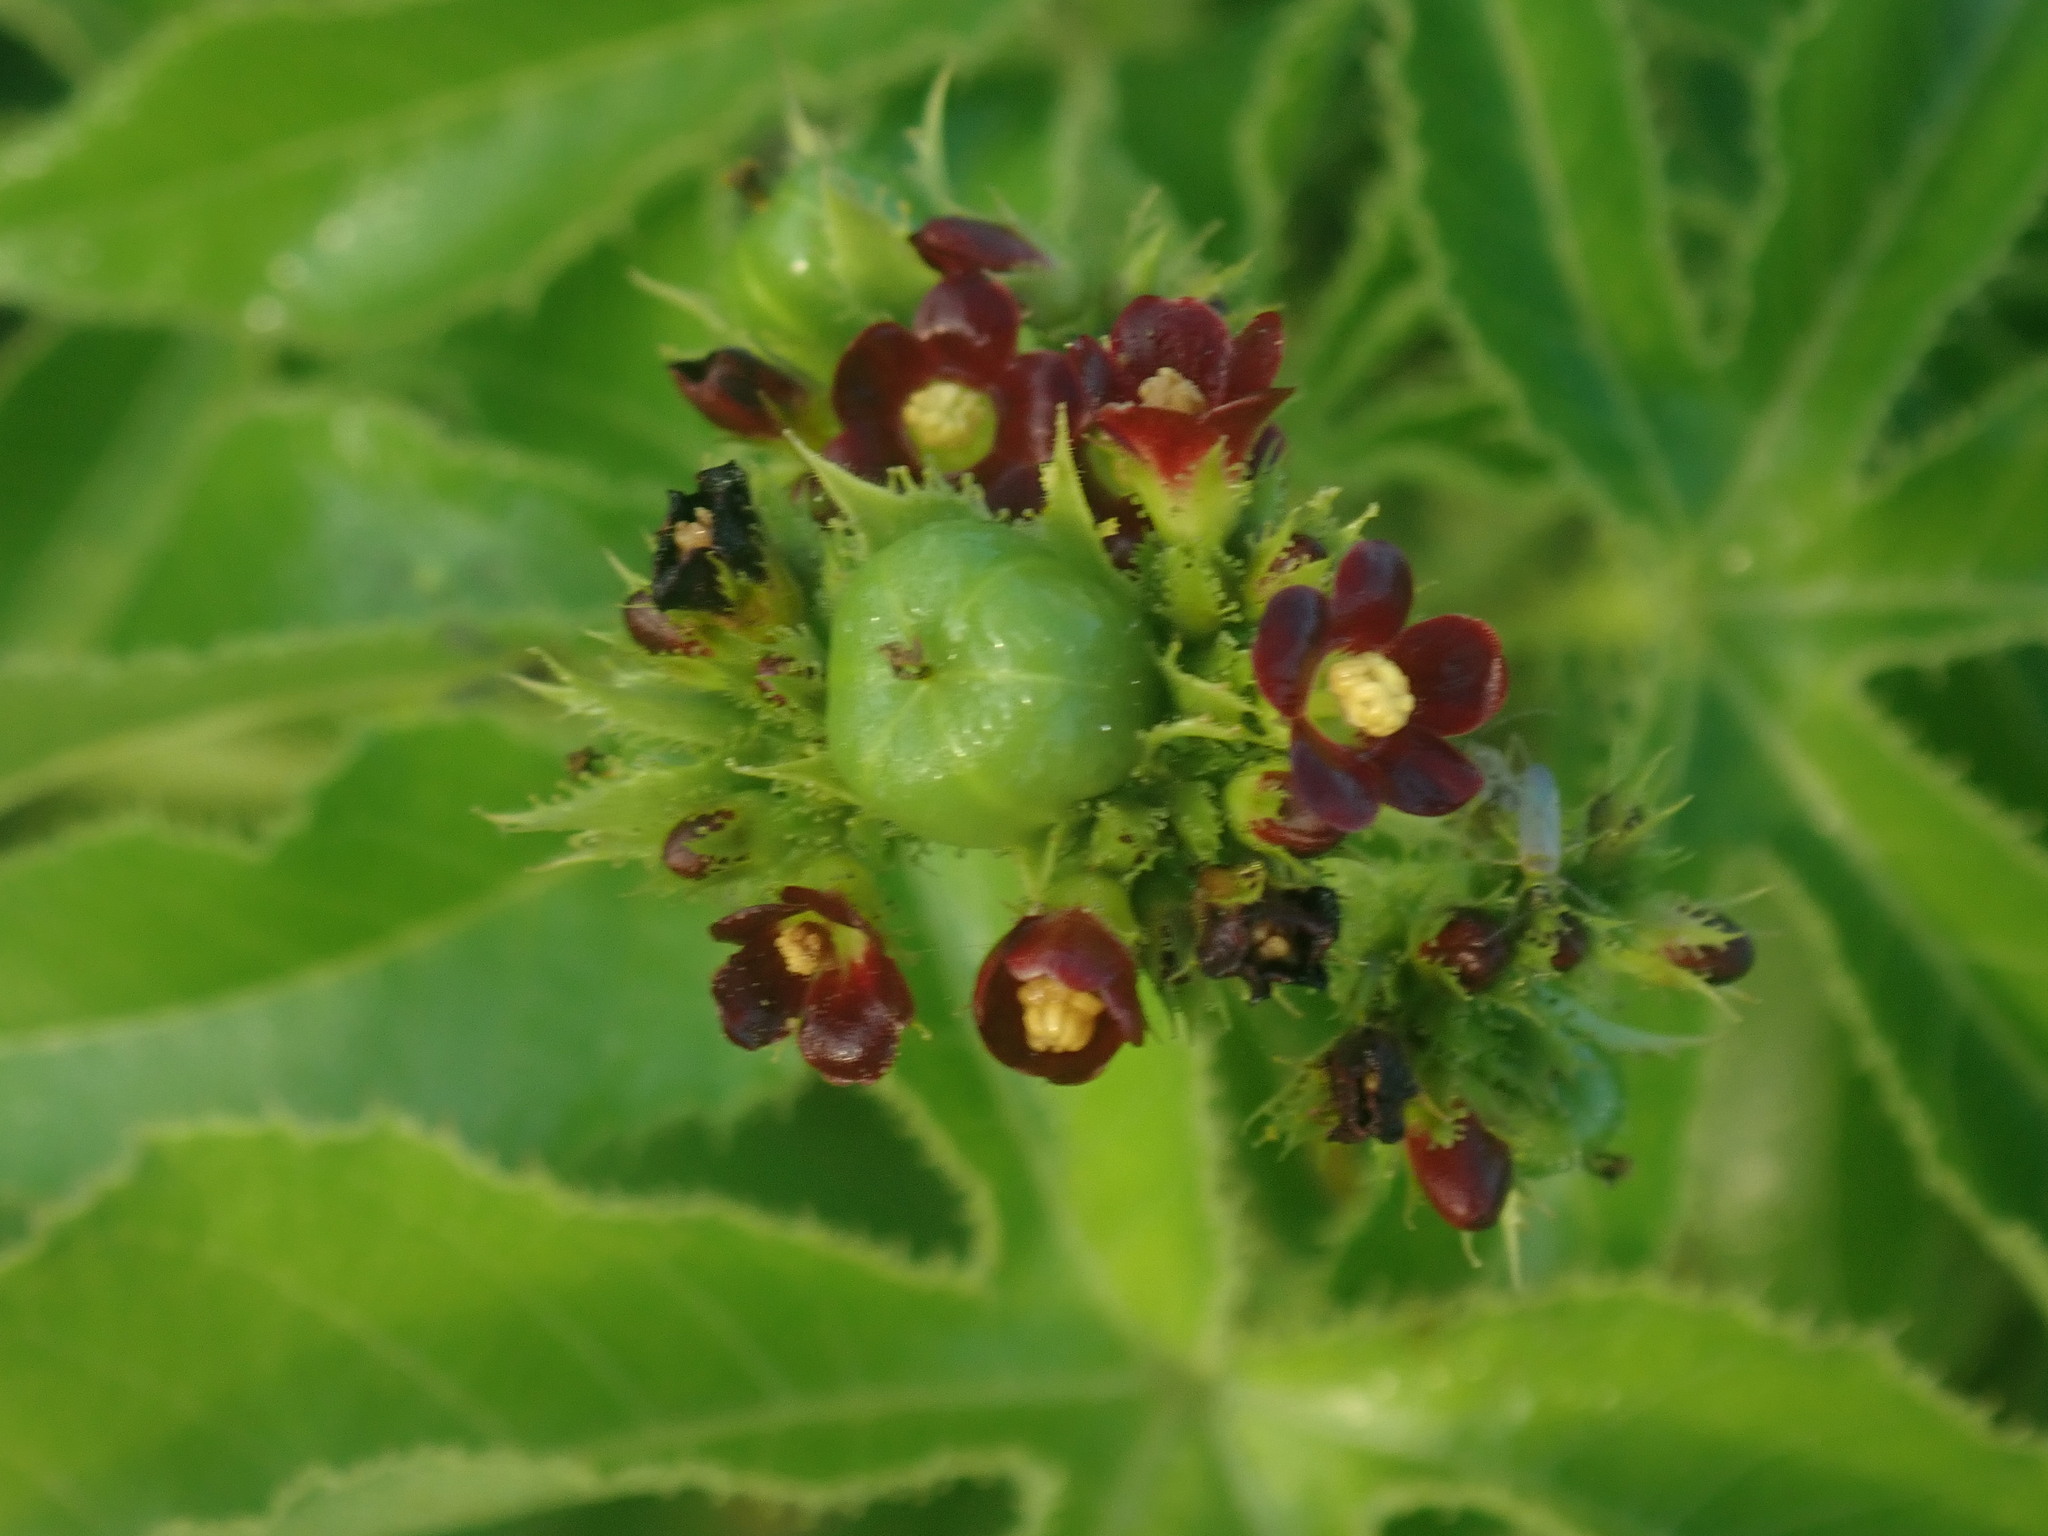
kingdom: Plantae
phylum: Tracheophyta
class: Magnoliopsida
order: Malpighiales
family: Euphorbiaceae
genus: Jatropha
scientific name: Jatropha gossypiifolia
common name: Bellyache bush
